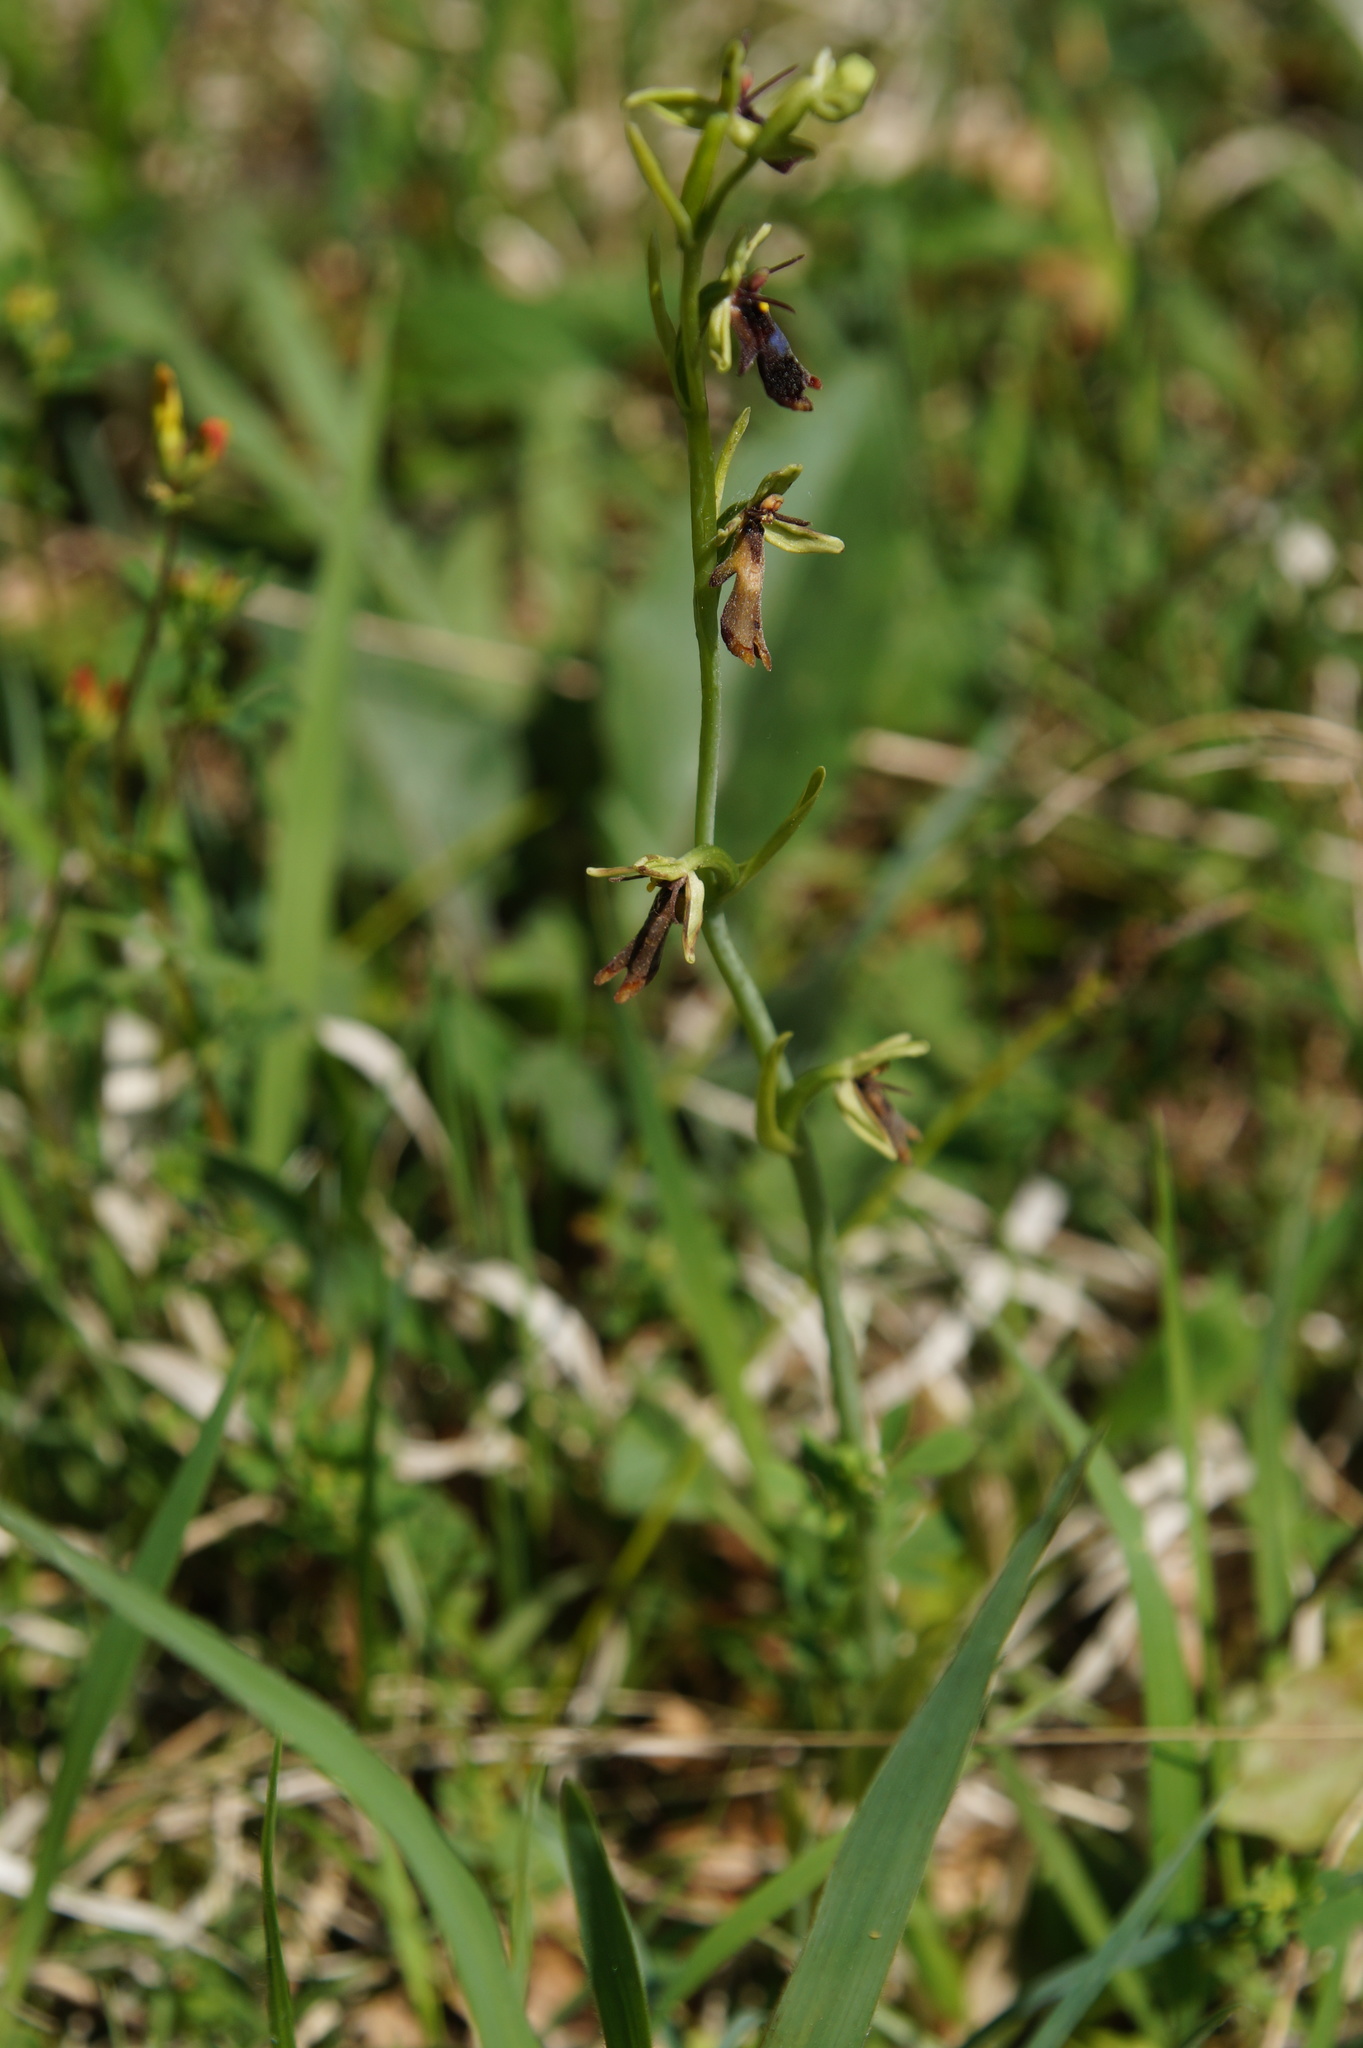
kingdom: Plantae
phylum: Tracheophyta
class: Liliopsida
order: Asparagales
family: Orchidaceae
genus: Ophrys
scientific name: Ophrys insectifera
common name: Fly orchid
